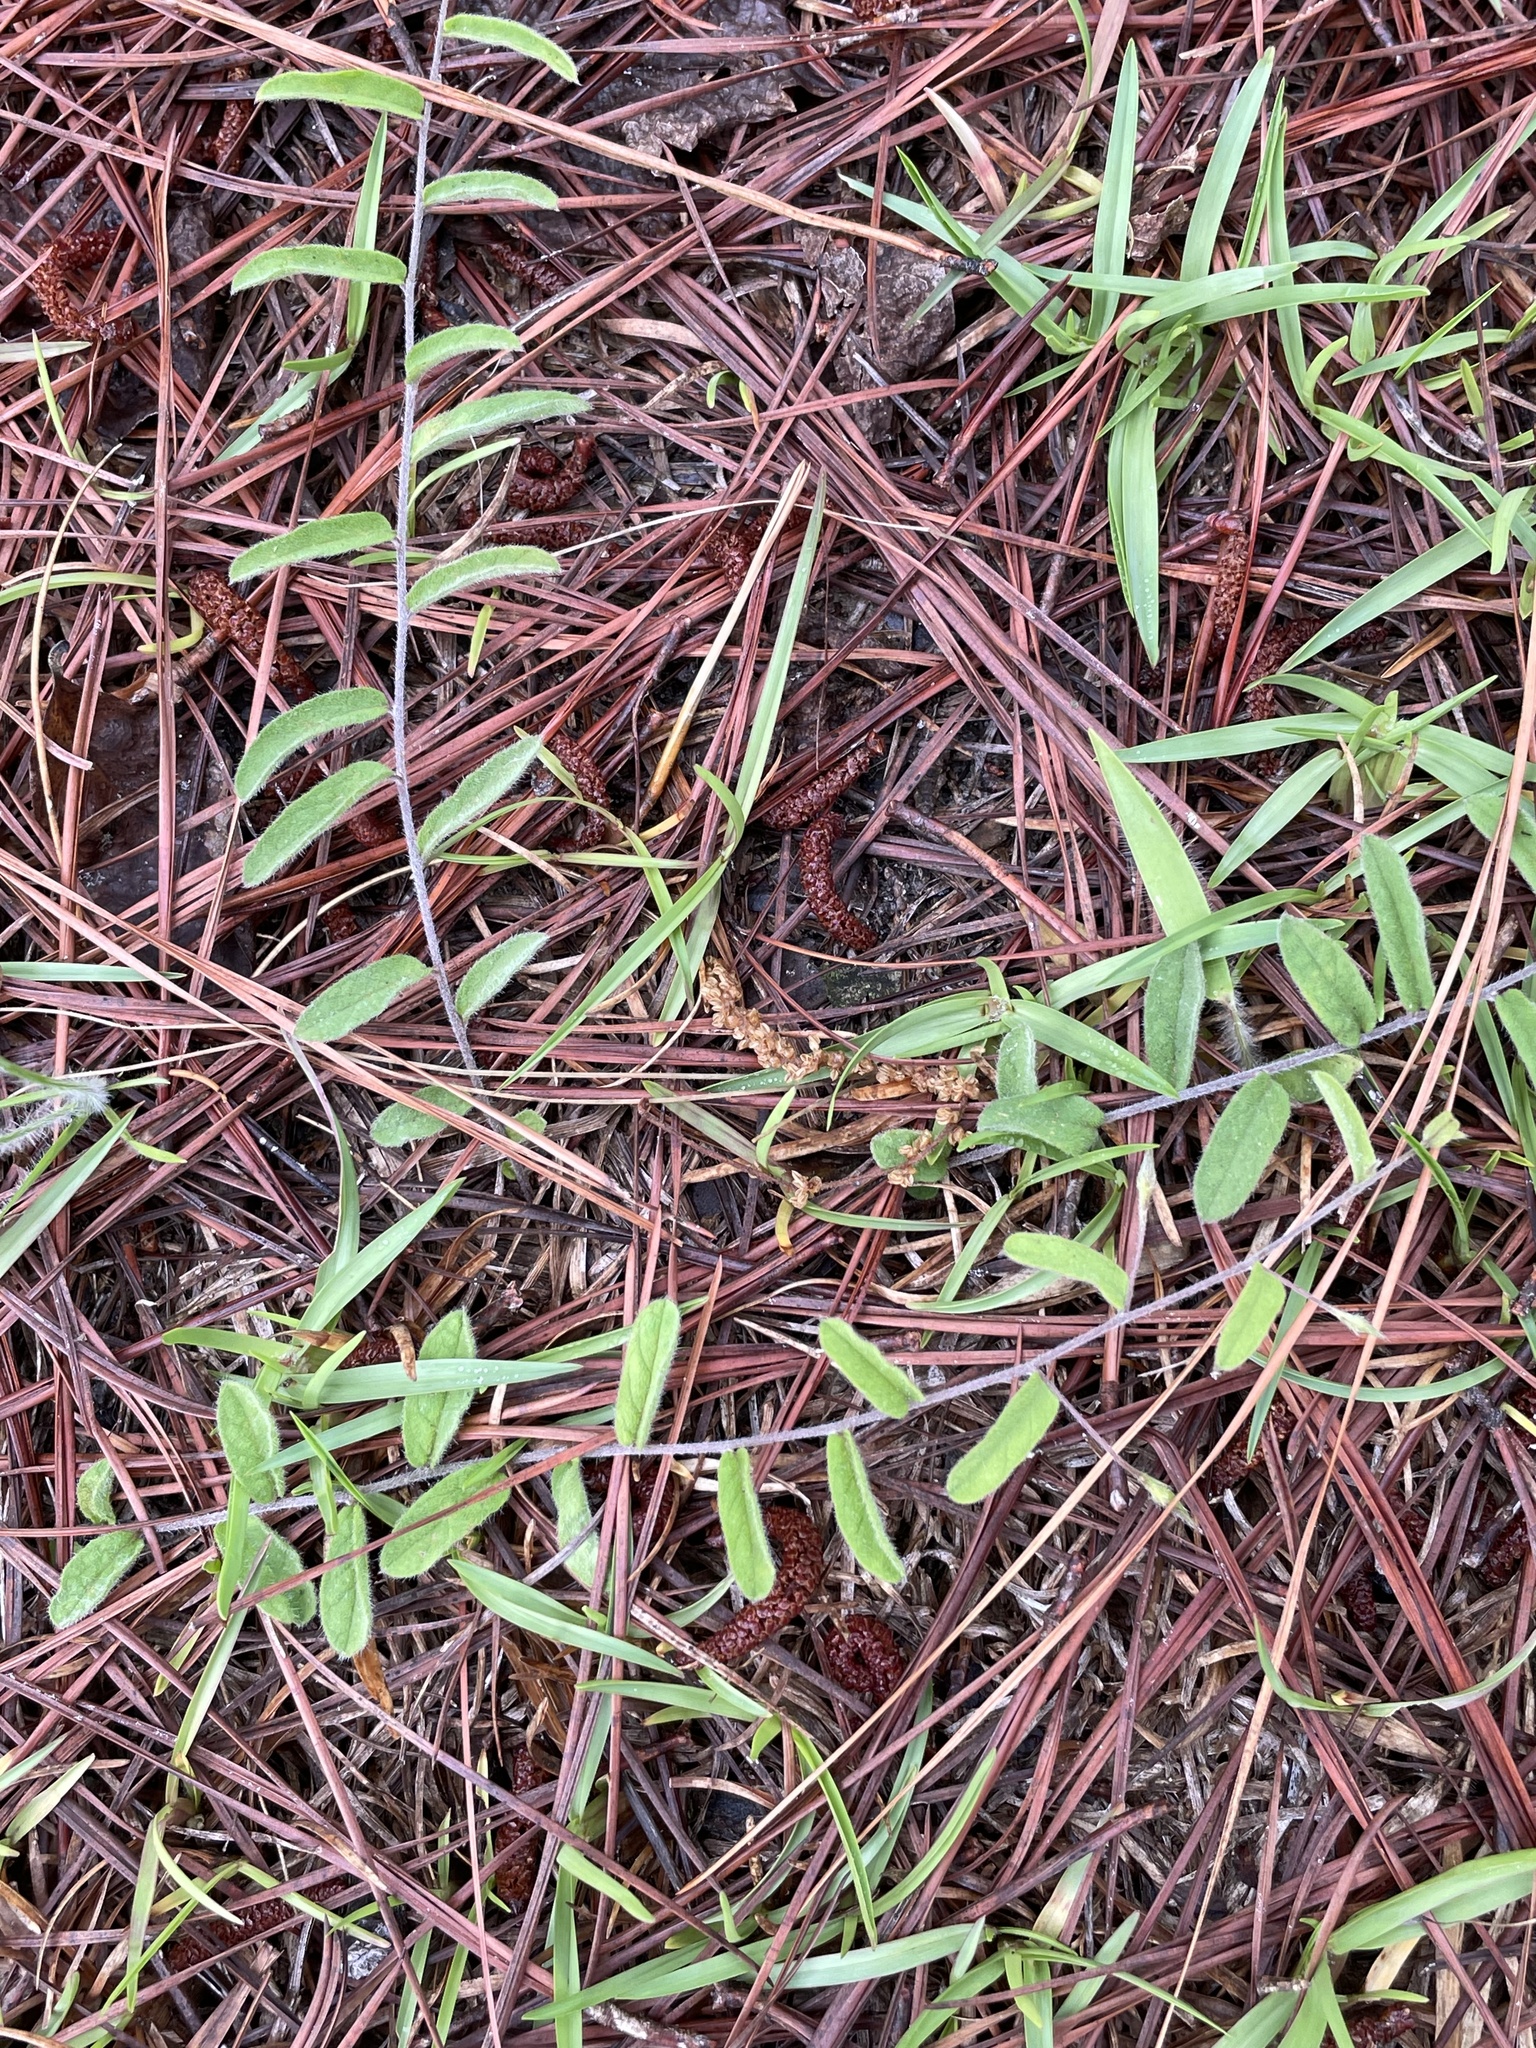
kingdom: Plantae
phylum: Tracheophyta
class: Magnoliopsida
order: Solanales
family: Convolvulaceae
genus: Stylisma
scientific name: Stylisma patens
